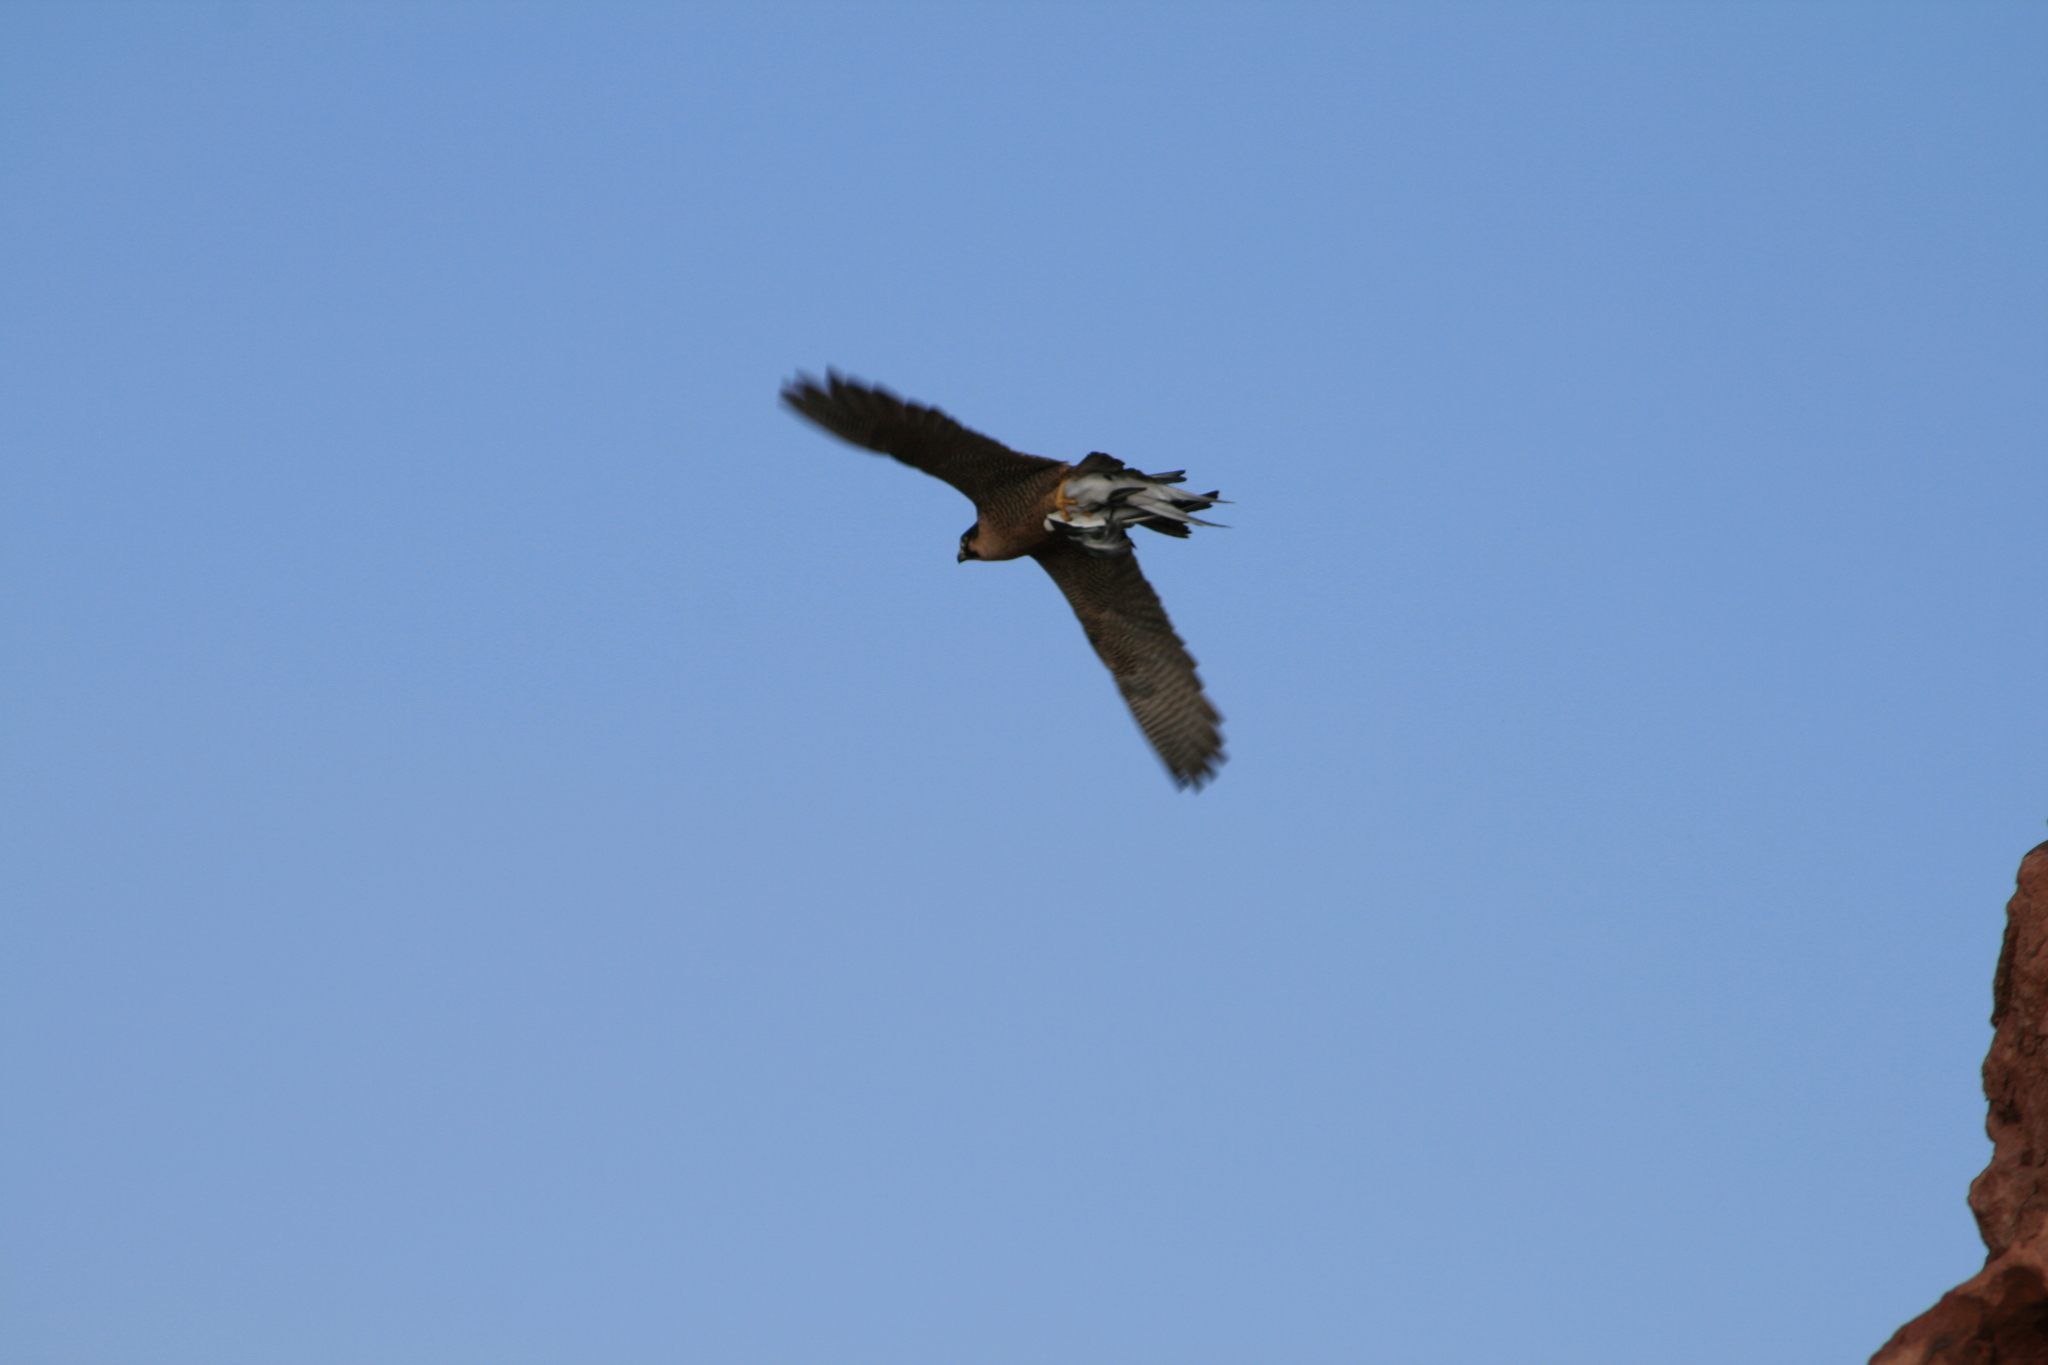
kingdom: Animalia
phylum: Chordata
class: Aves
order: Falconiformes
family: Falconidae
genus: Falco
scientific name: Falco peregrinus
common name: Peregrine falcon
